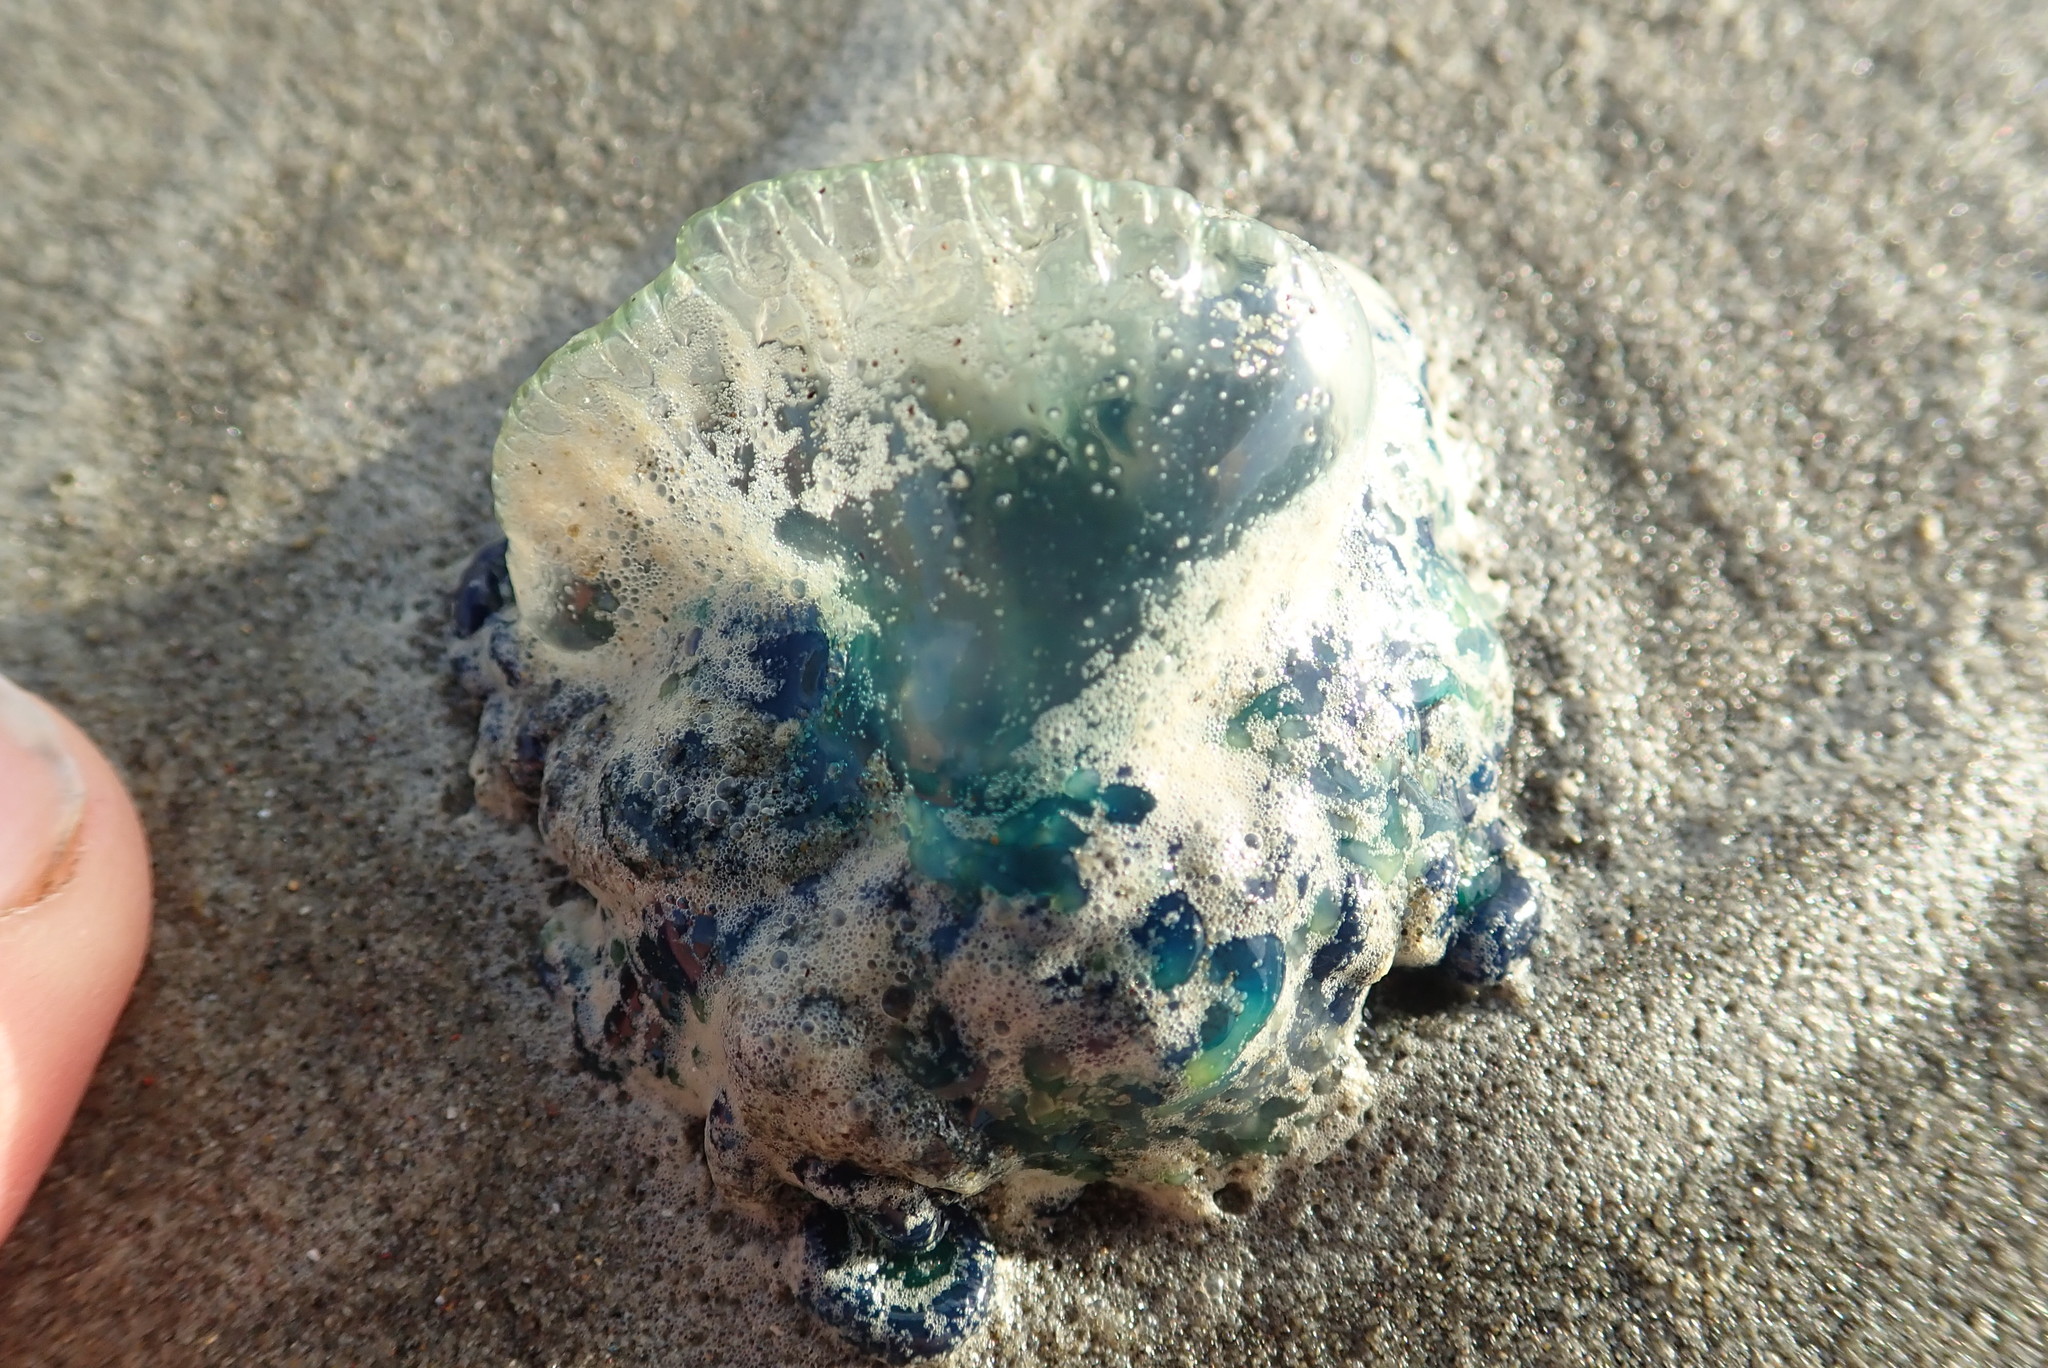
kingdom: Animalia
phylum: Cnidaria
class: Hydrozoa
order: Siphonophorae
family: Physaliidae
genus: Physalia
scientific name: Physalia physalis
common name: Portuguese man-of-war
